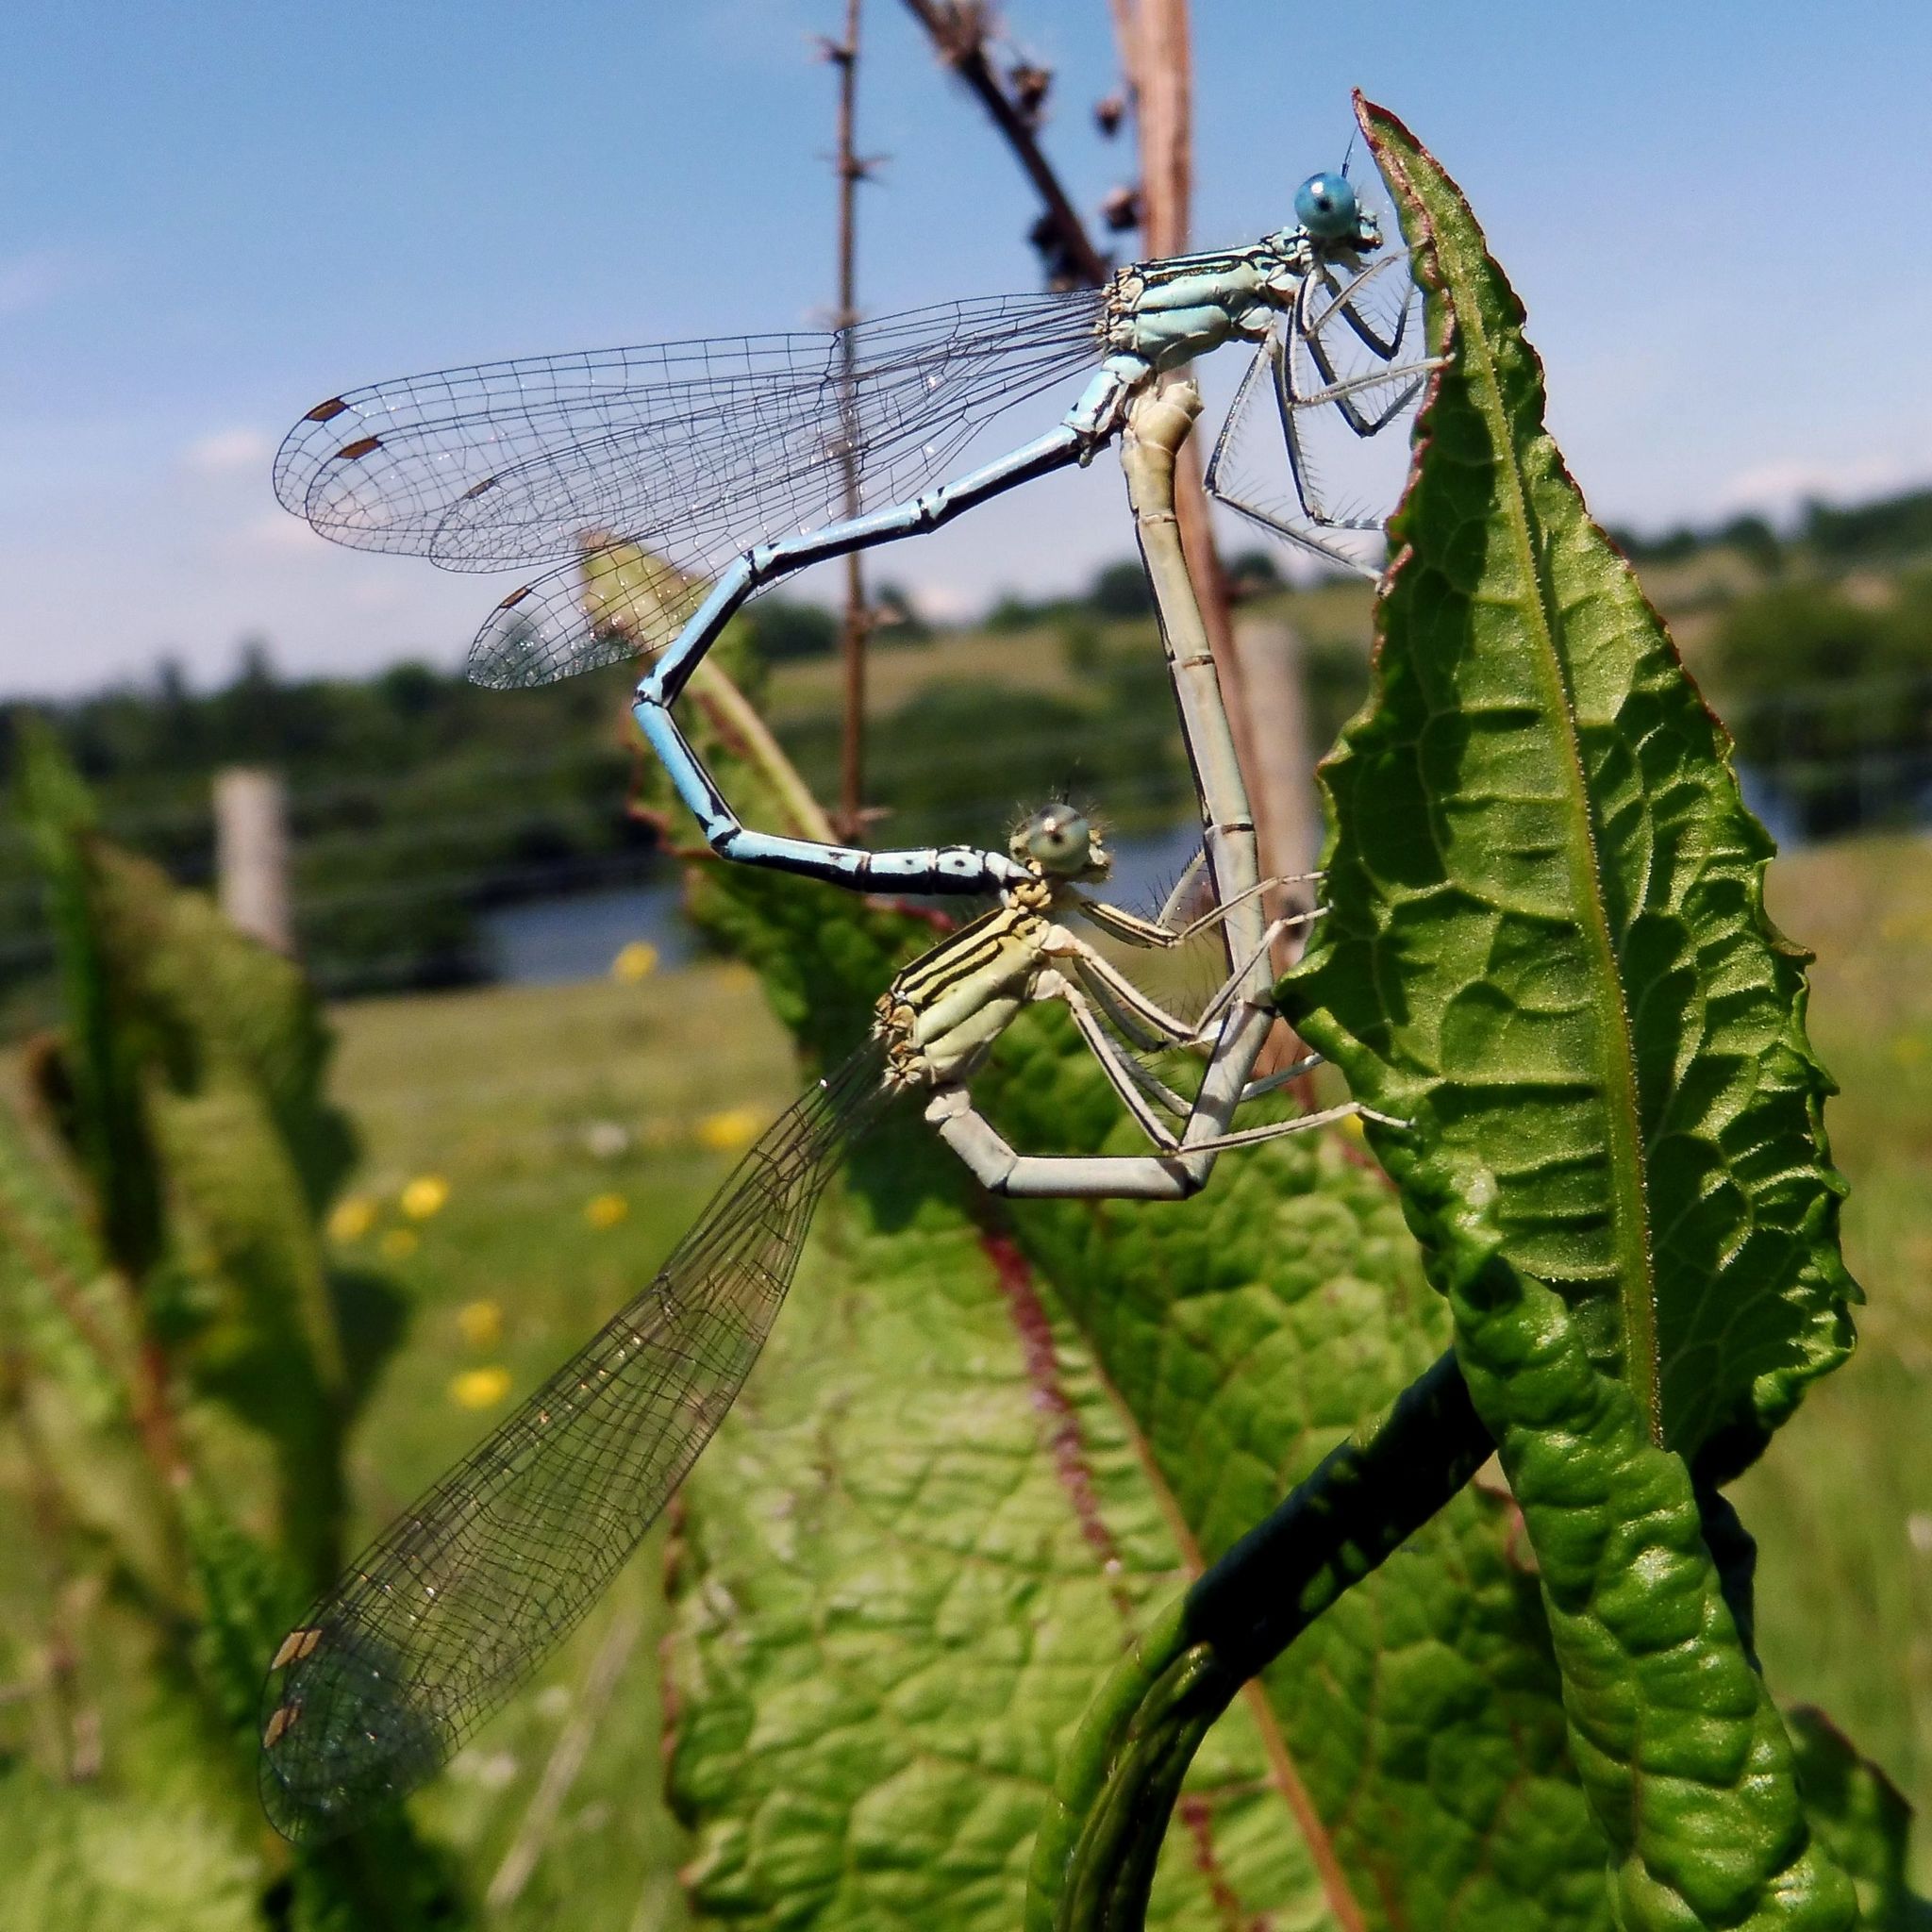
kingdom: Animalia
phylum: Arthropoda
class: Insecta
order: Odonata
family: Platycnemididae
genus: Platycnemis
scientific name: Platycnemis pennipes
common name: White-legged damselfly
